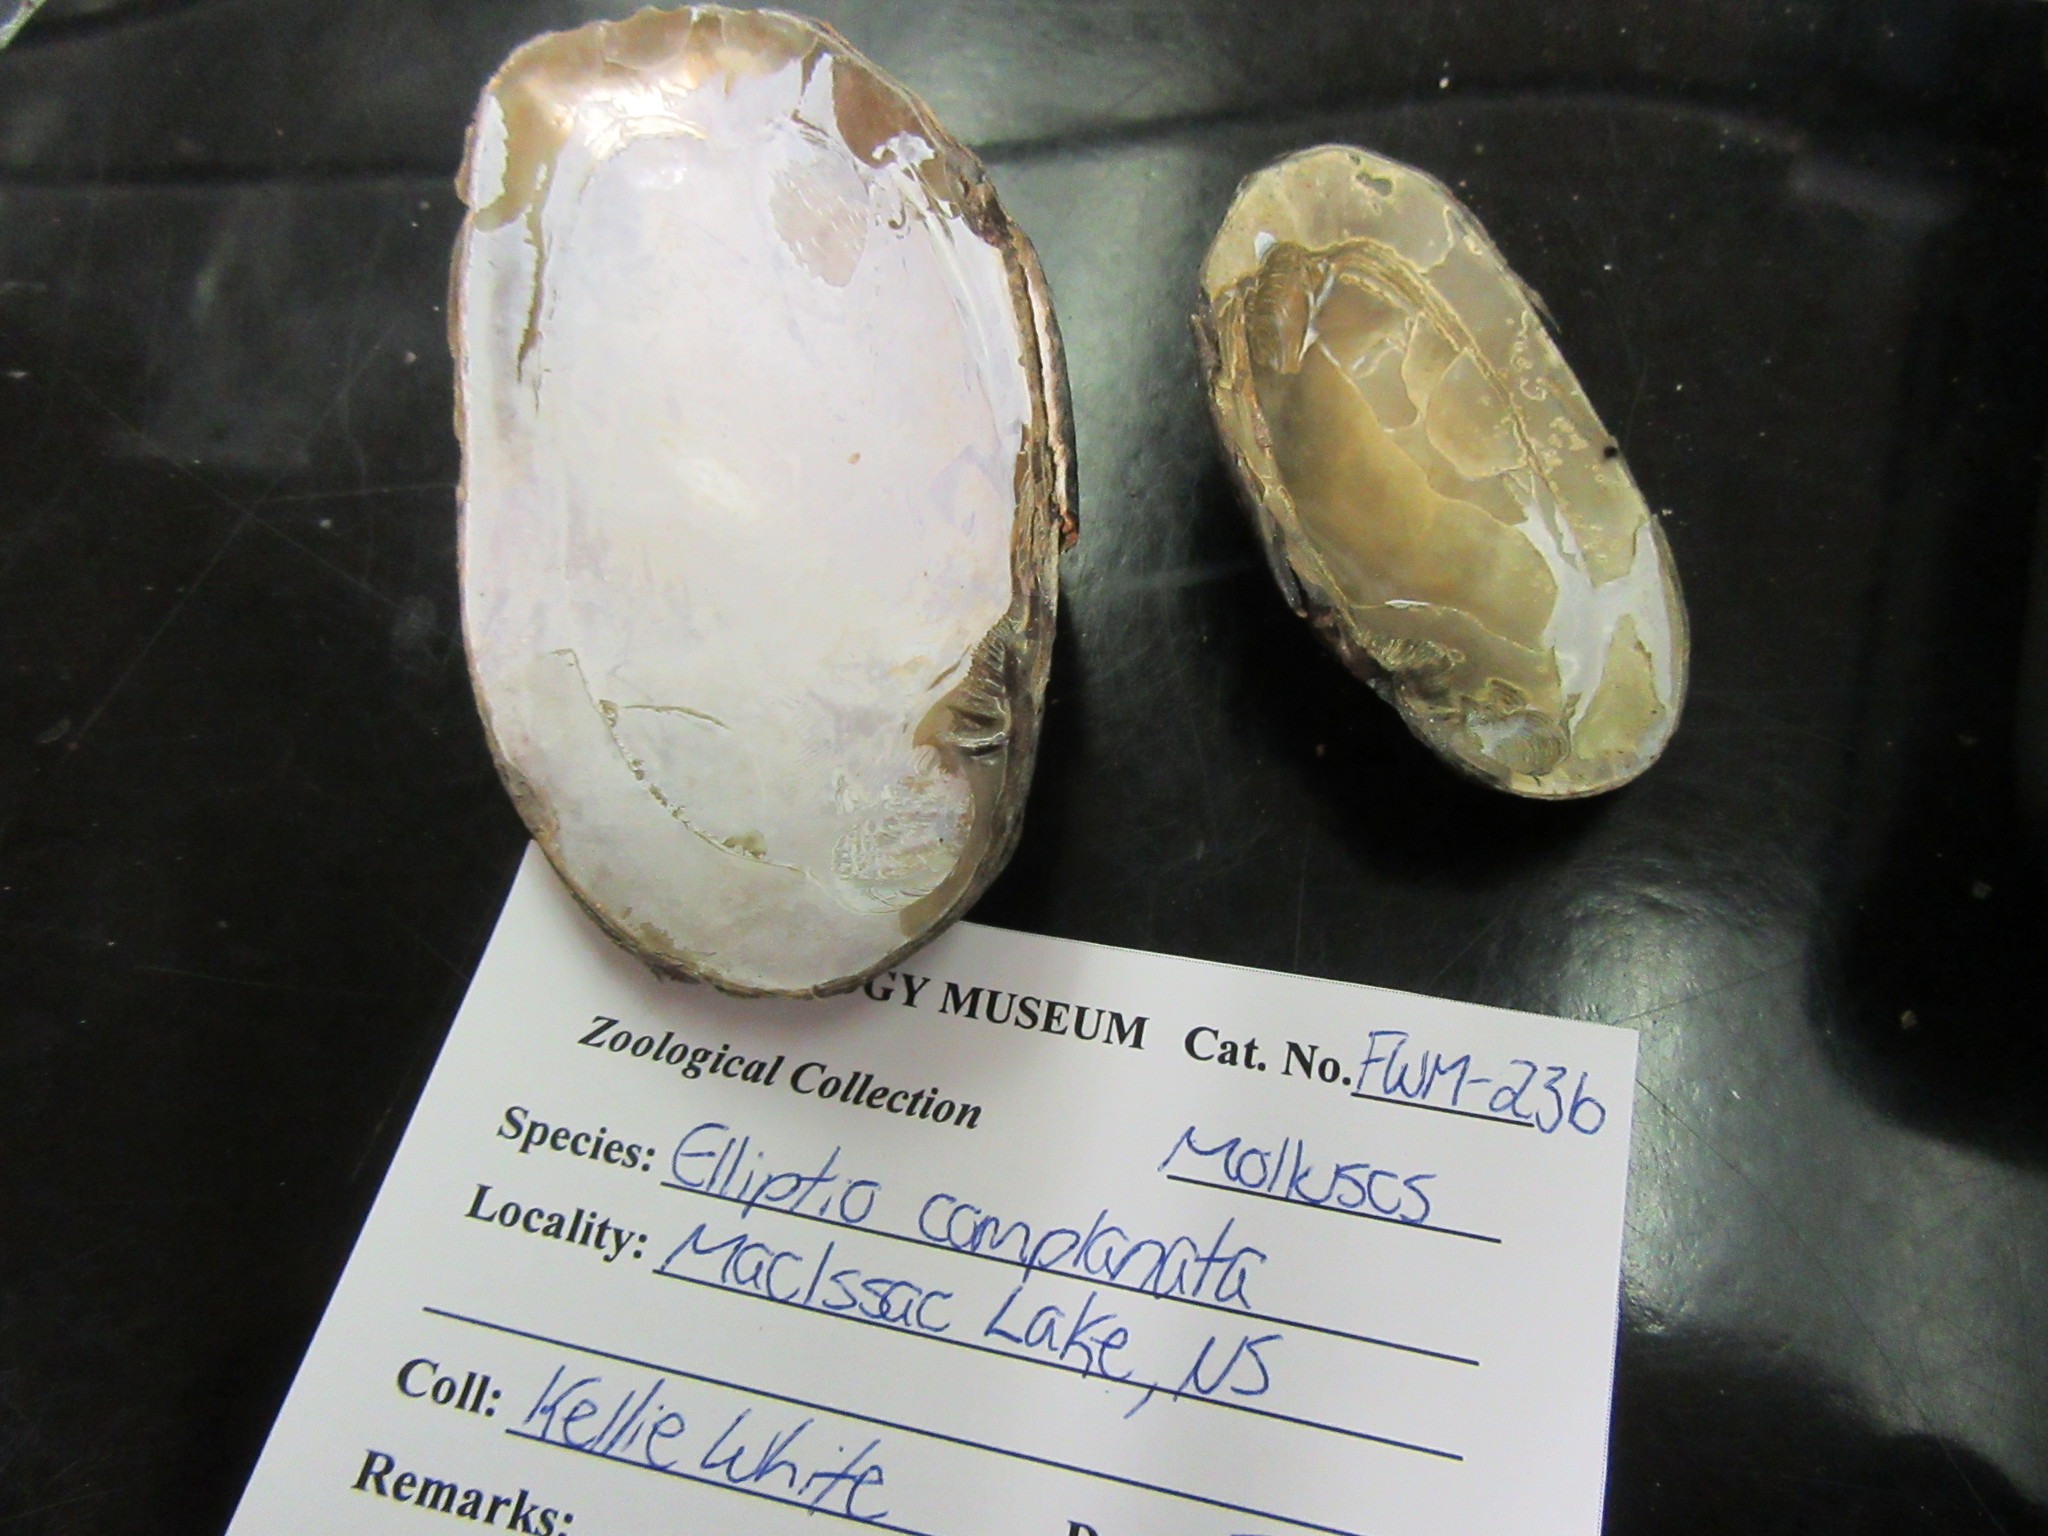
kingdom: Animalia
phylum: Mollusca
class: Bivalvia
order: Unionida
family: Unionidae
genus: Elliptio
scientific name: Elliptio complanata
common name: Eastern elliptio
